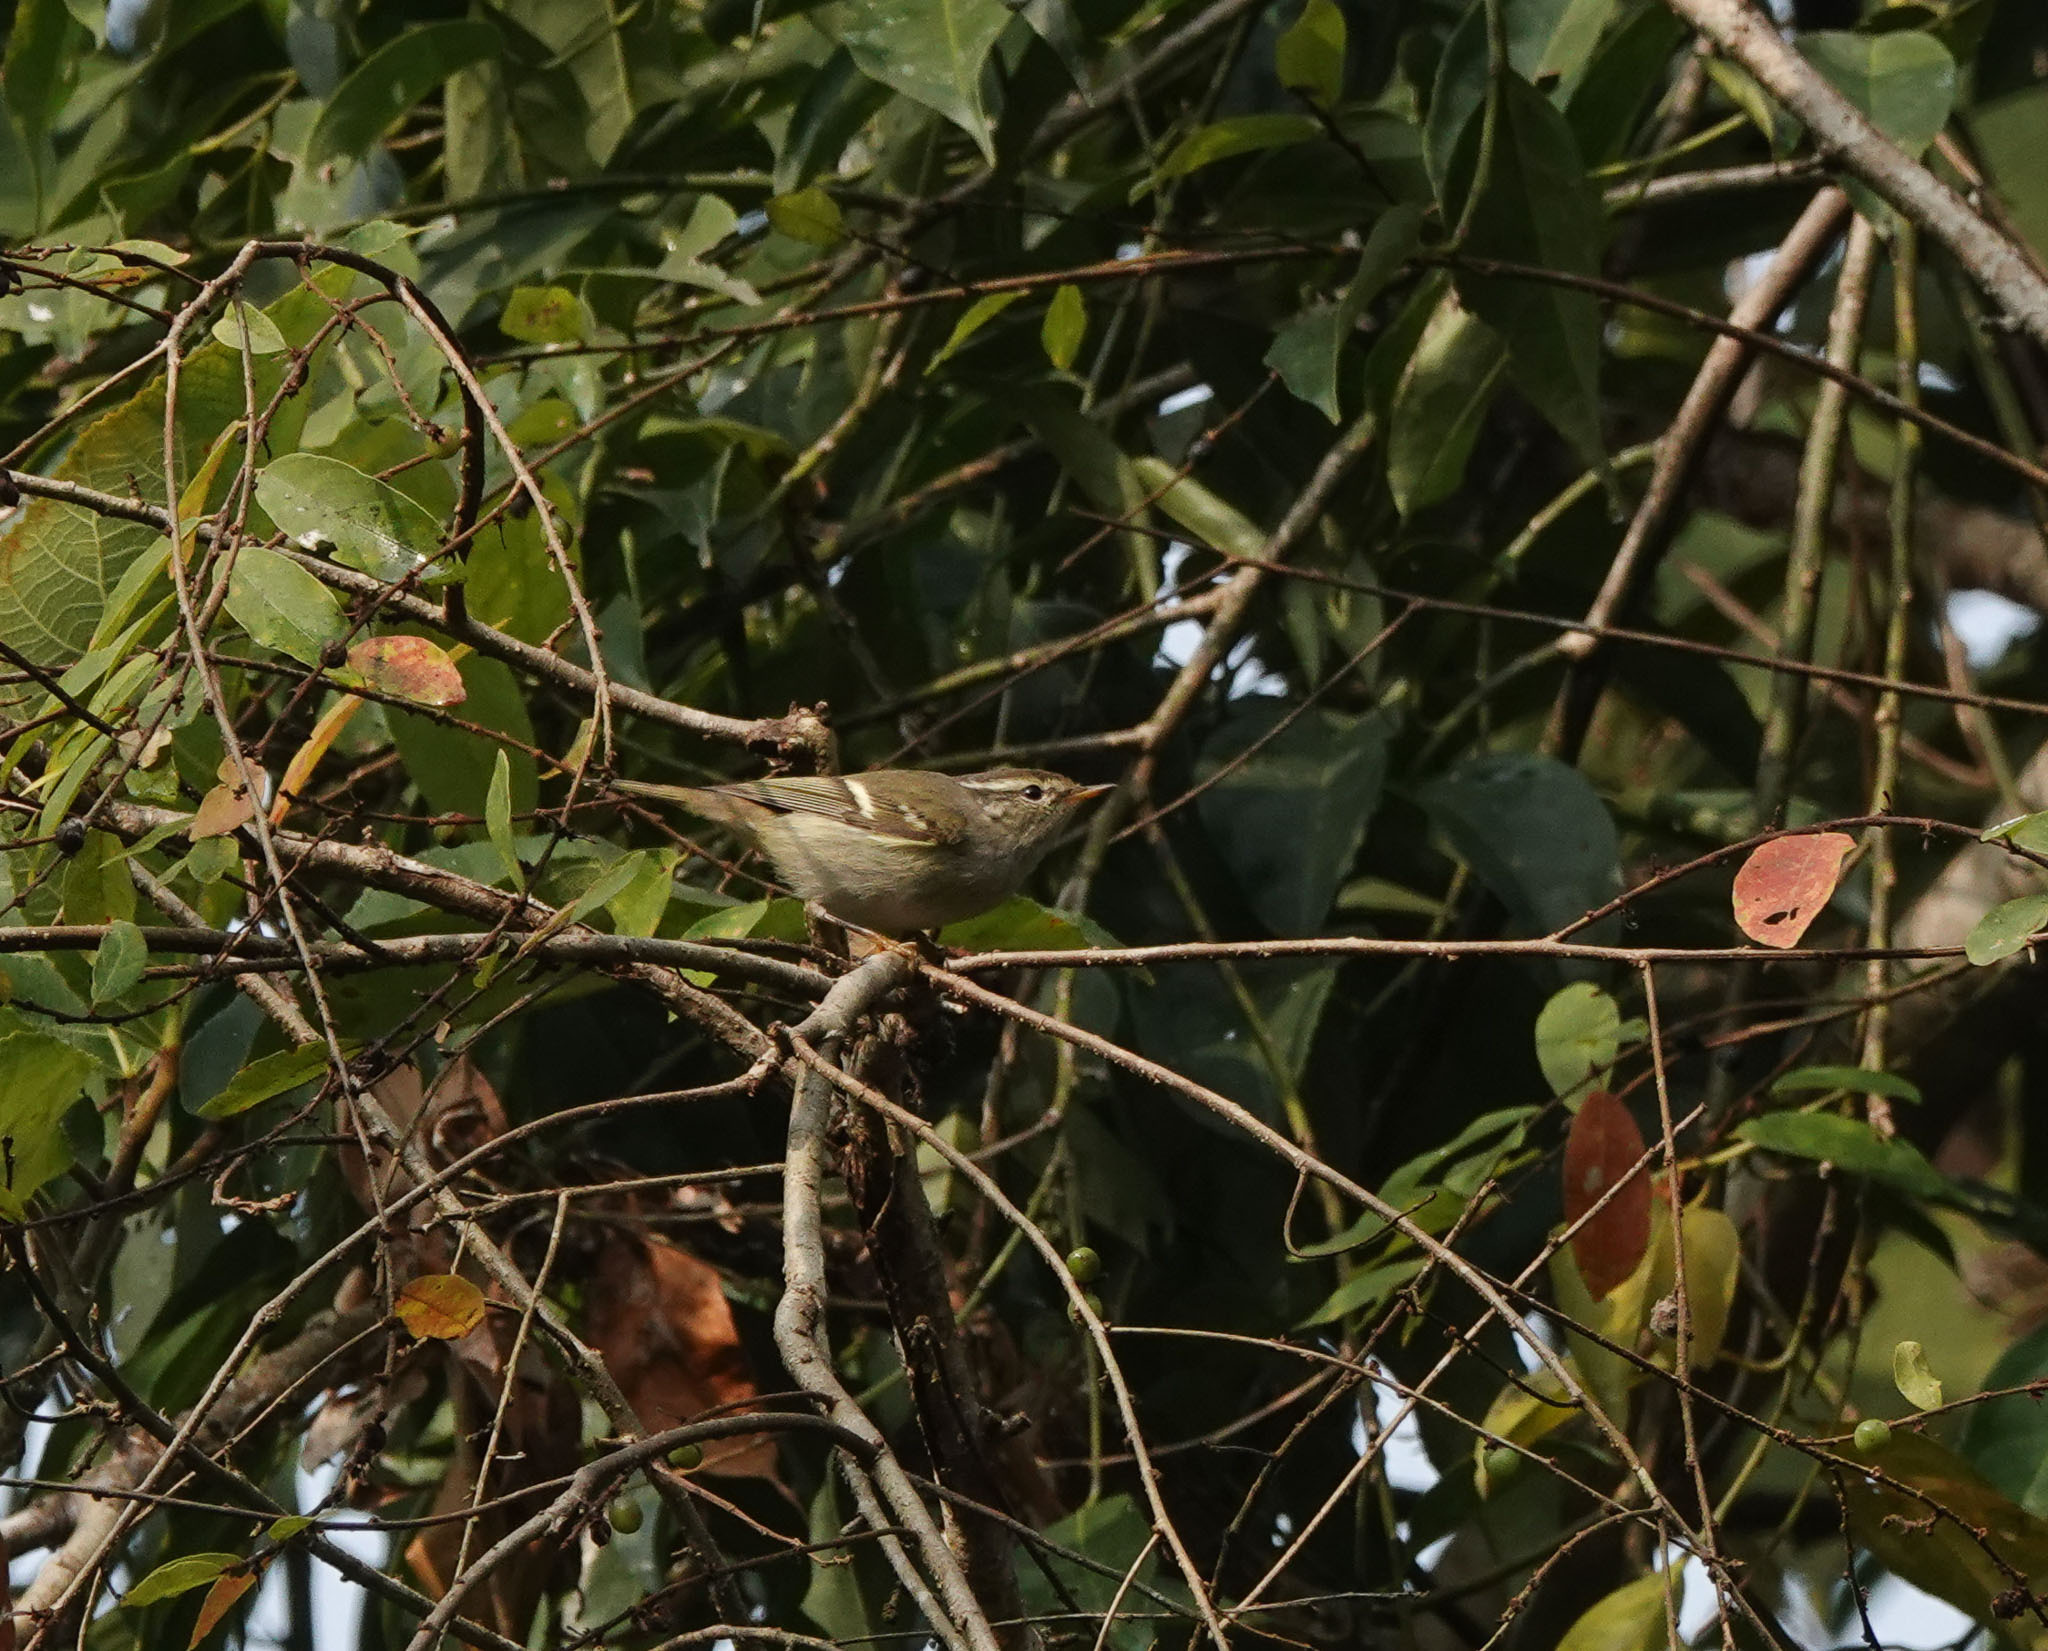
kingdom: Animalia
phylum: Chordata
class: Aves
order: Passeriformes
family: Phylloscopidae
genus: Phylloscopus
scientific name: Phylloscopus inornatus
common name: Yellow-browed warbler
